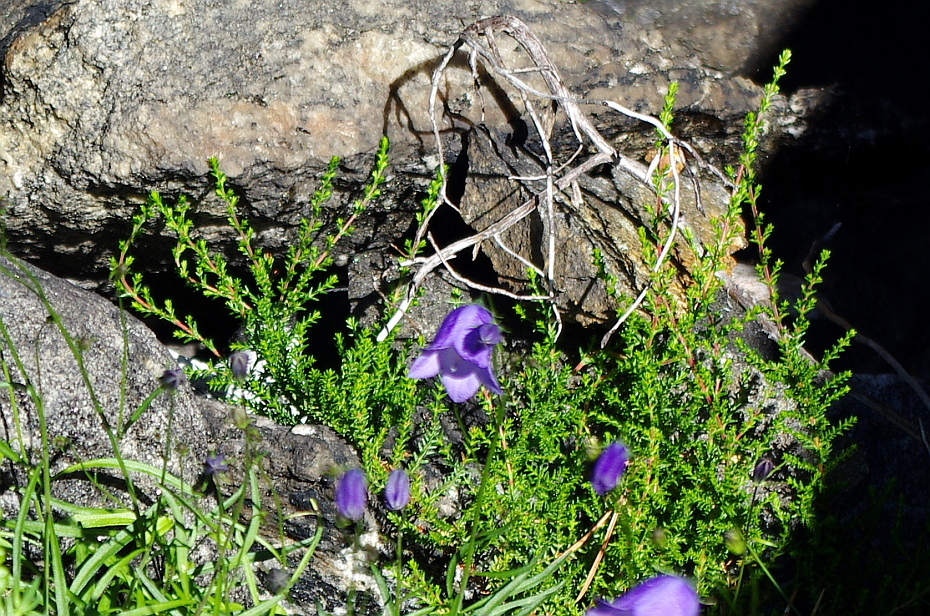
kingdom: Plantae
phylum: Tracheophyta
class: Magnoliopsida
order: Ericales
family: Ericaceae
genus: Empetrum
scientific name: Empetrum nigrum
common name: Black crowberry
